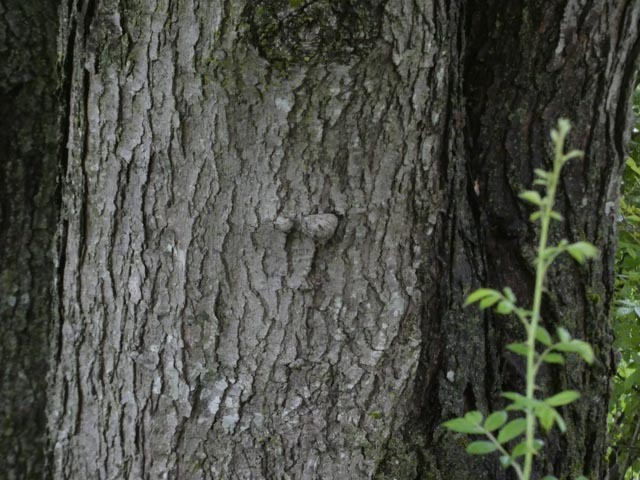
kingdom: Plantae
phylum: Tracheophyta
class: Magnoliopsida
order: Sapindales
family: Sapindaceae
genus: Acer
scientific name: Acer rubrum
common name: Red maple
